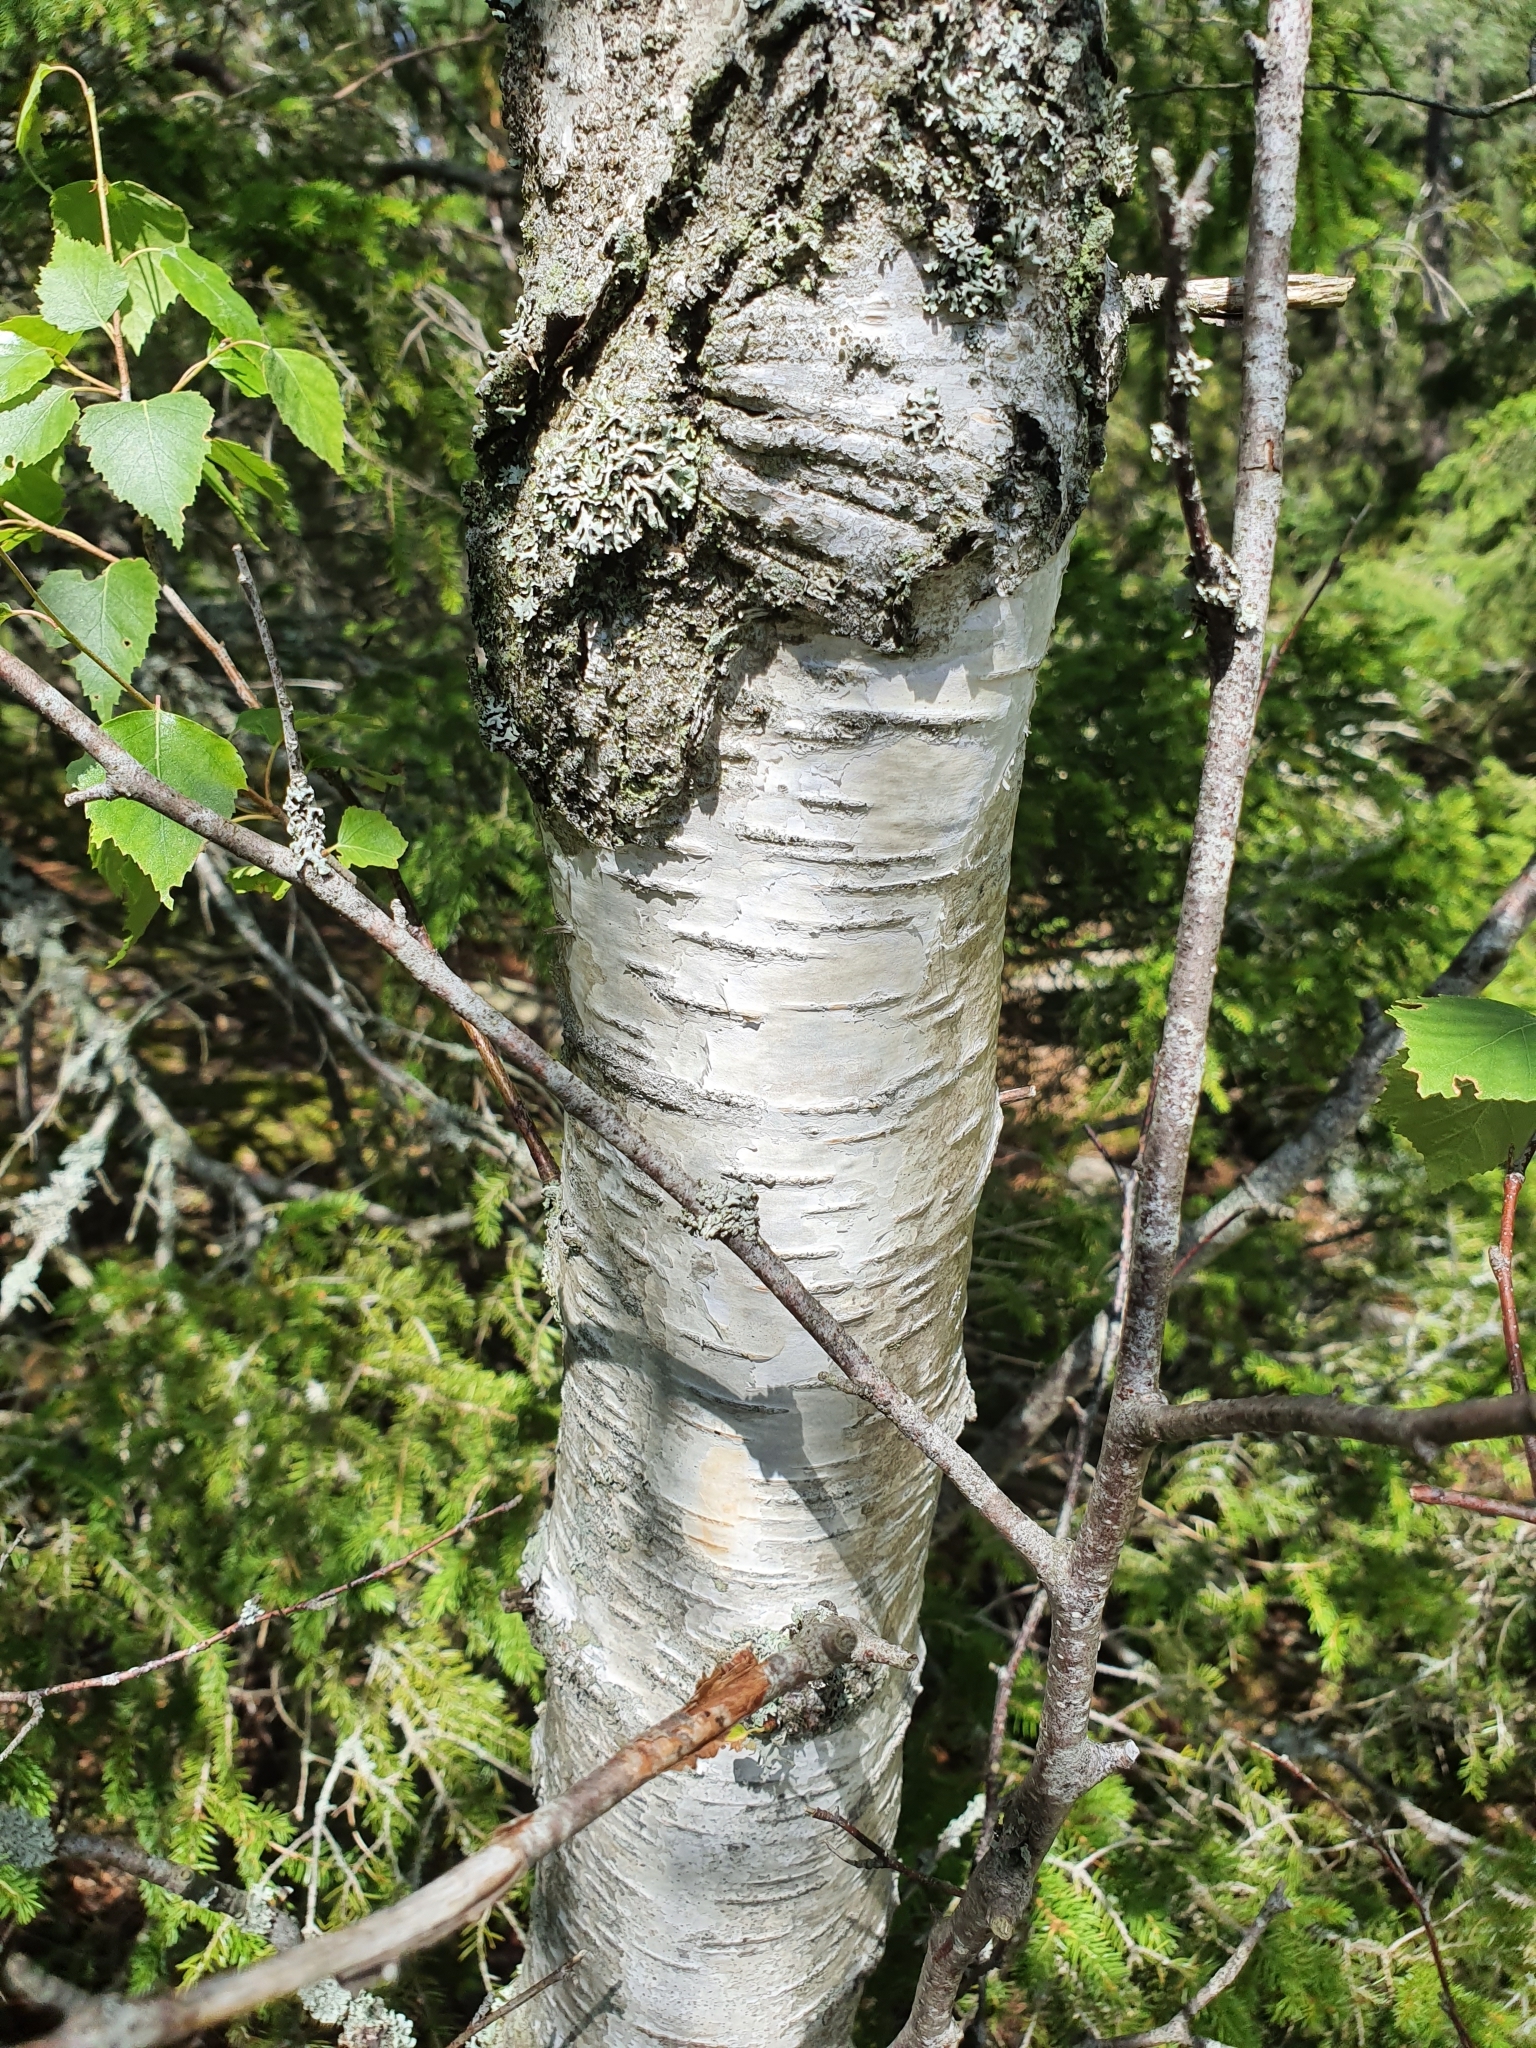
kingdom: Plantae
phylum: Tracheophyta
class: Magnoliopsida
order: Fagales
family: Betulaceae
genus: Betula
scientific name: Betula pendula
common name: Silver birch
